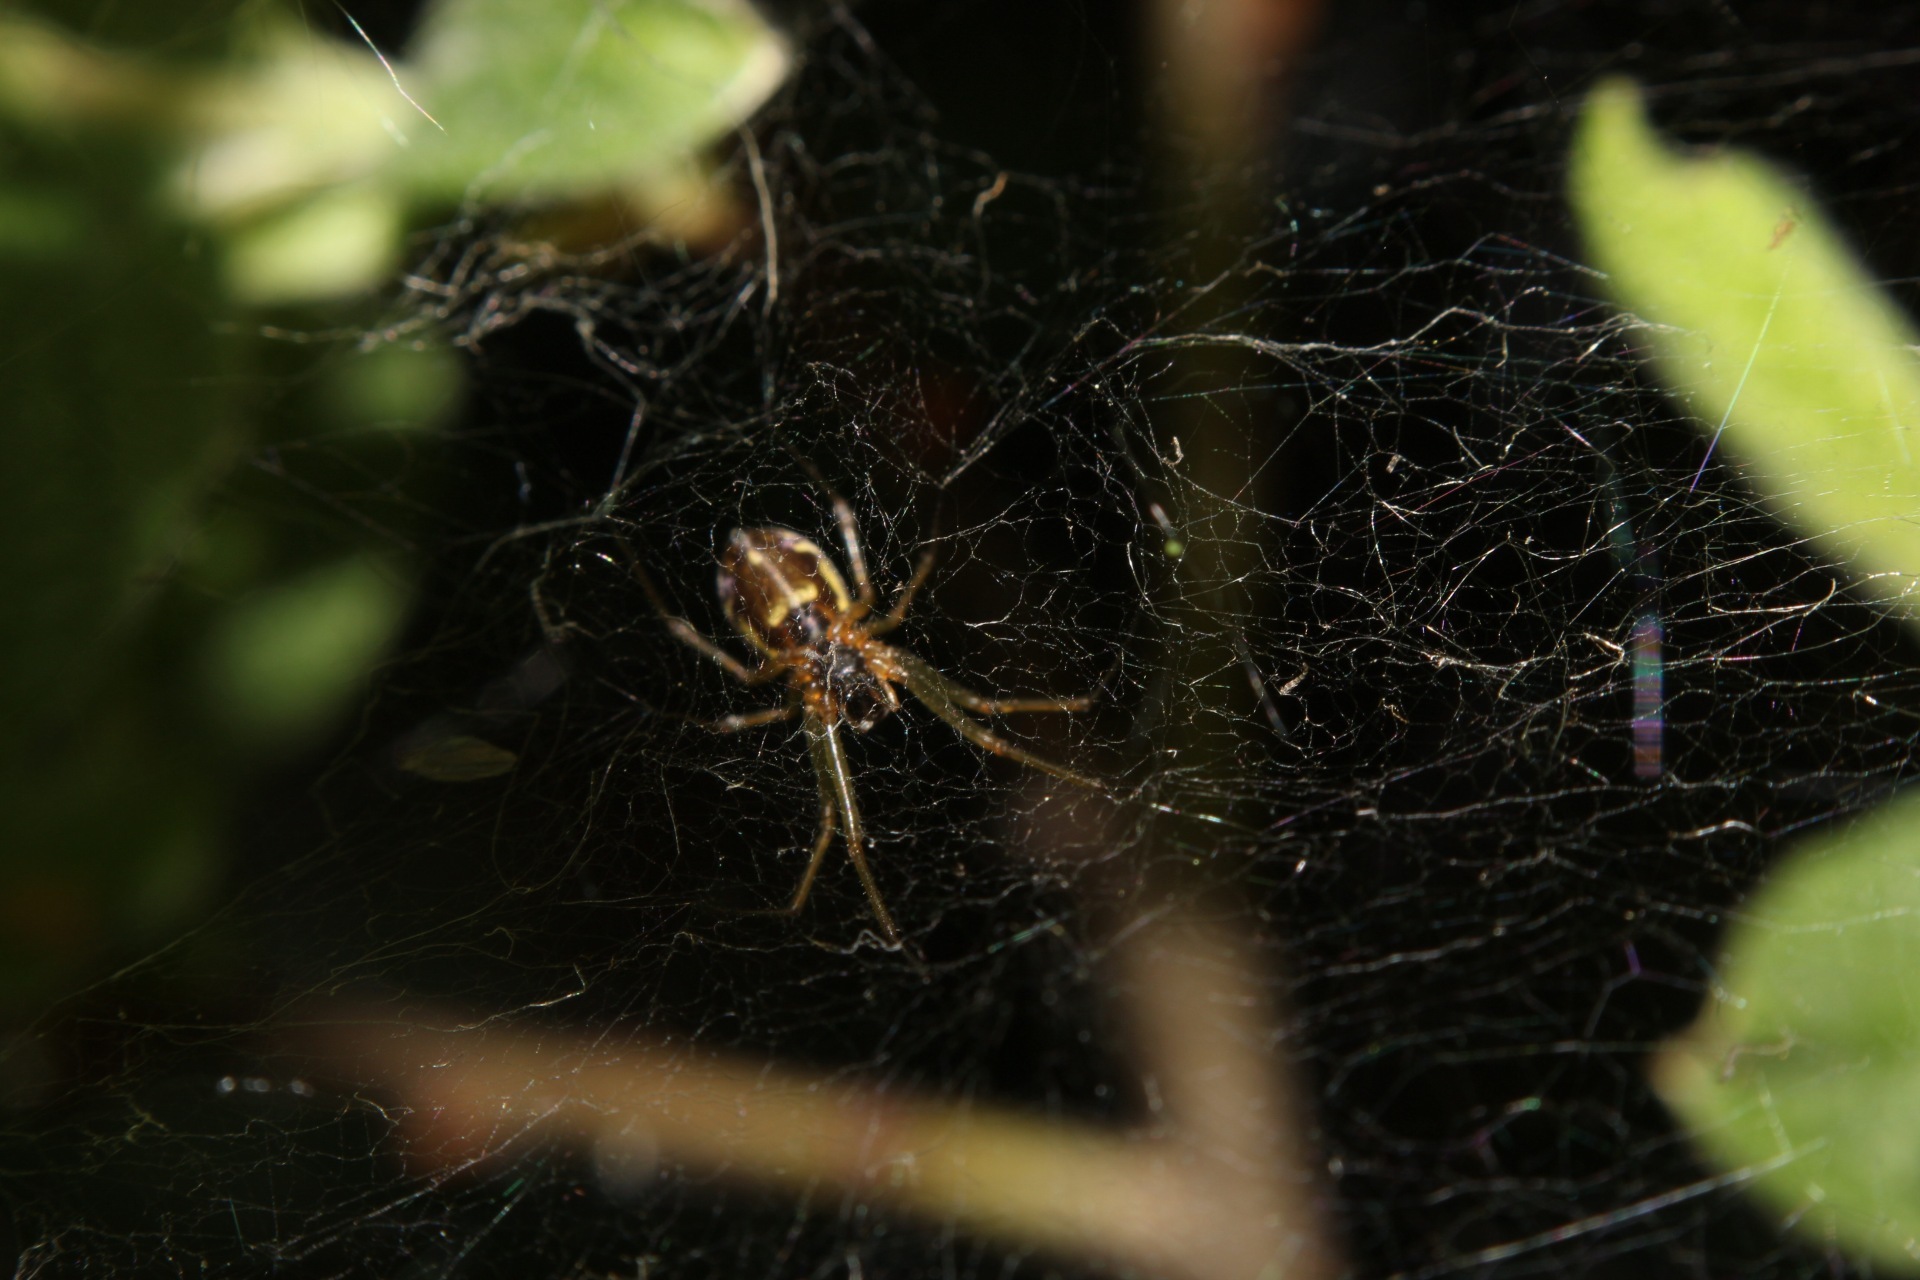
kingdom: Animalia
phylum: Arthropoda
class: Arachnida
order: Araneae
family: Linyphiidae
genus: Neriene
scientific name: Neriene peltata
